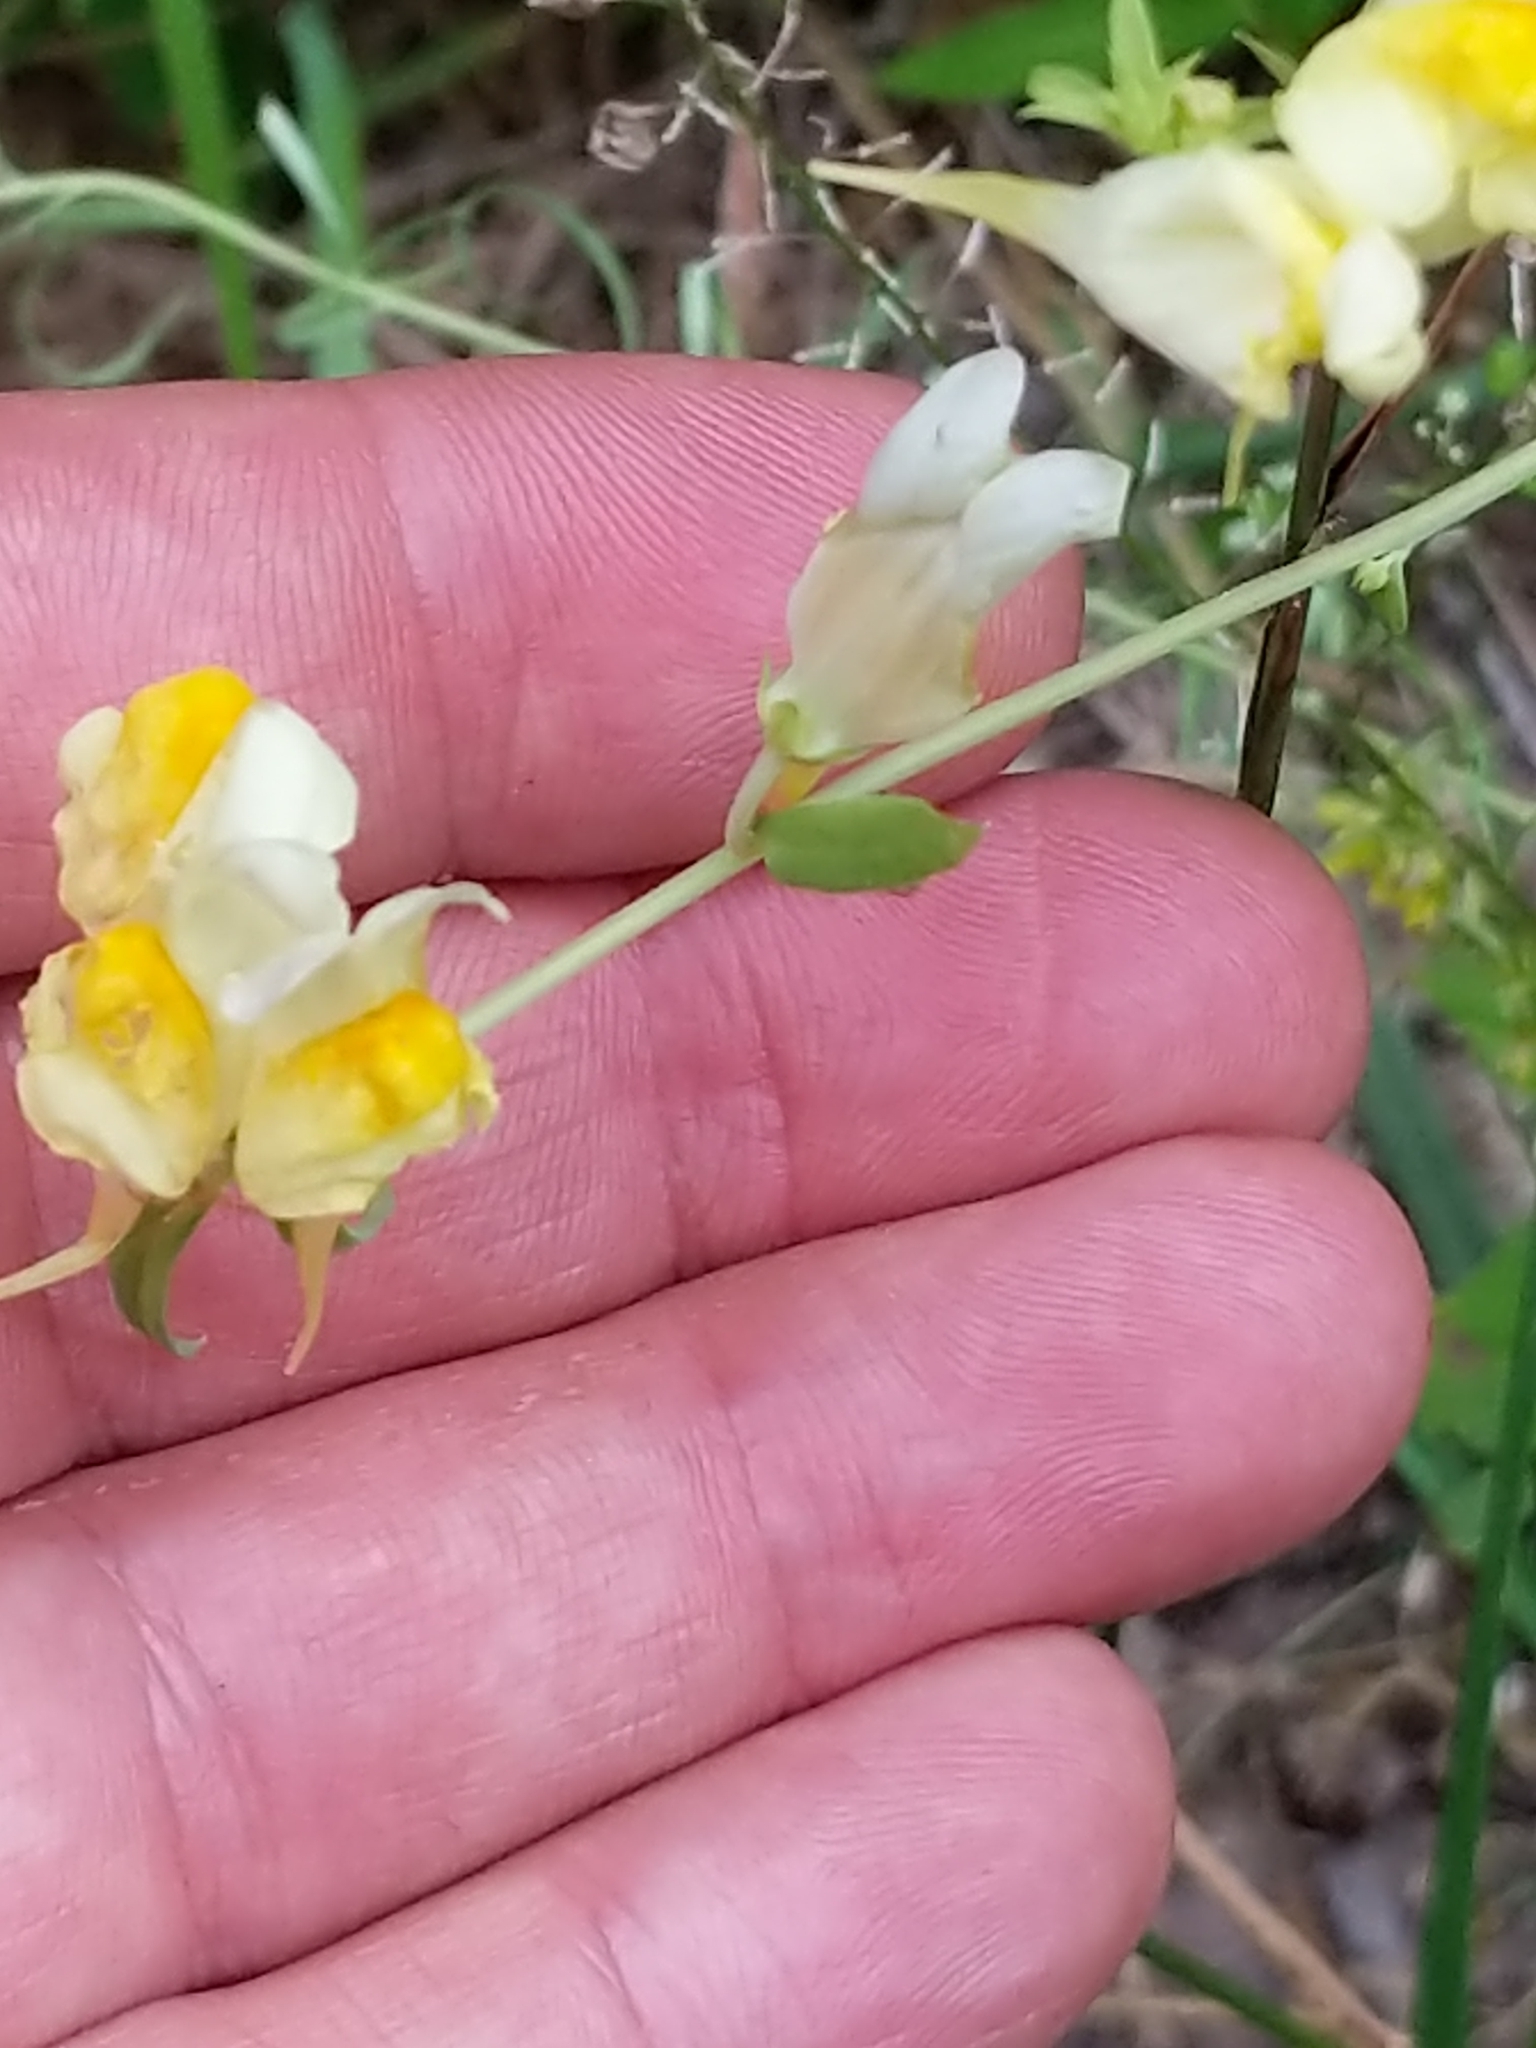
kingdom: Plantae
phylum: Tracheophyta
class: Magnoliopsida
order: Lamiales
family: Plantaginaceae
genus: Linaria
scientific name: Linaria vulgaris
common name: Butter and eggs
